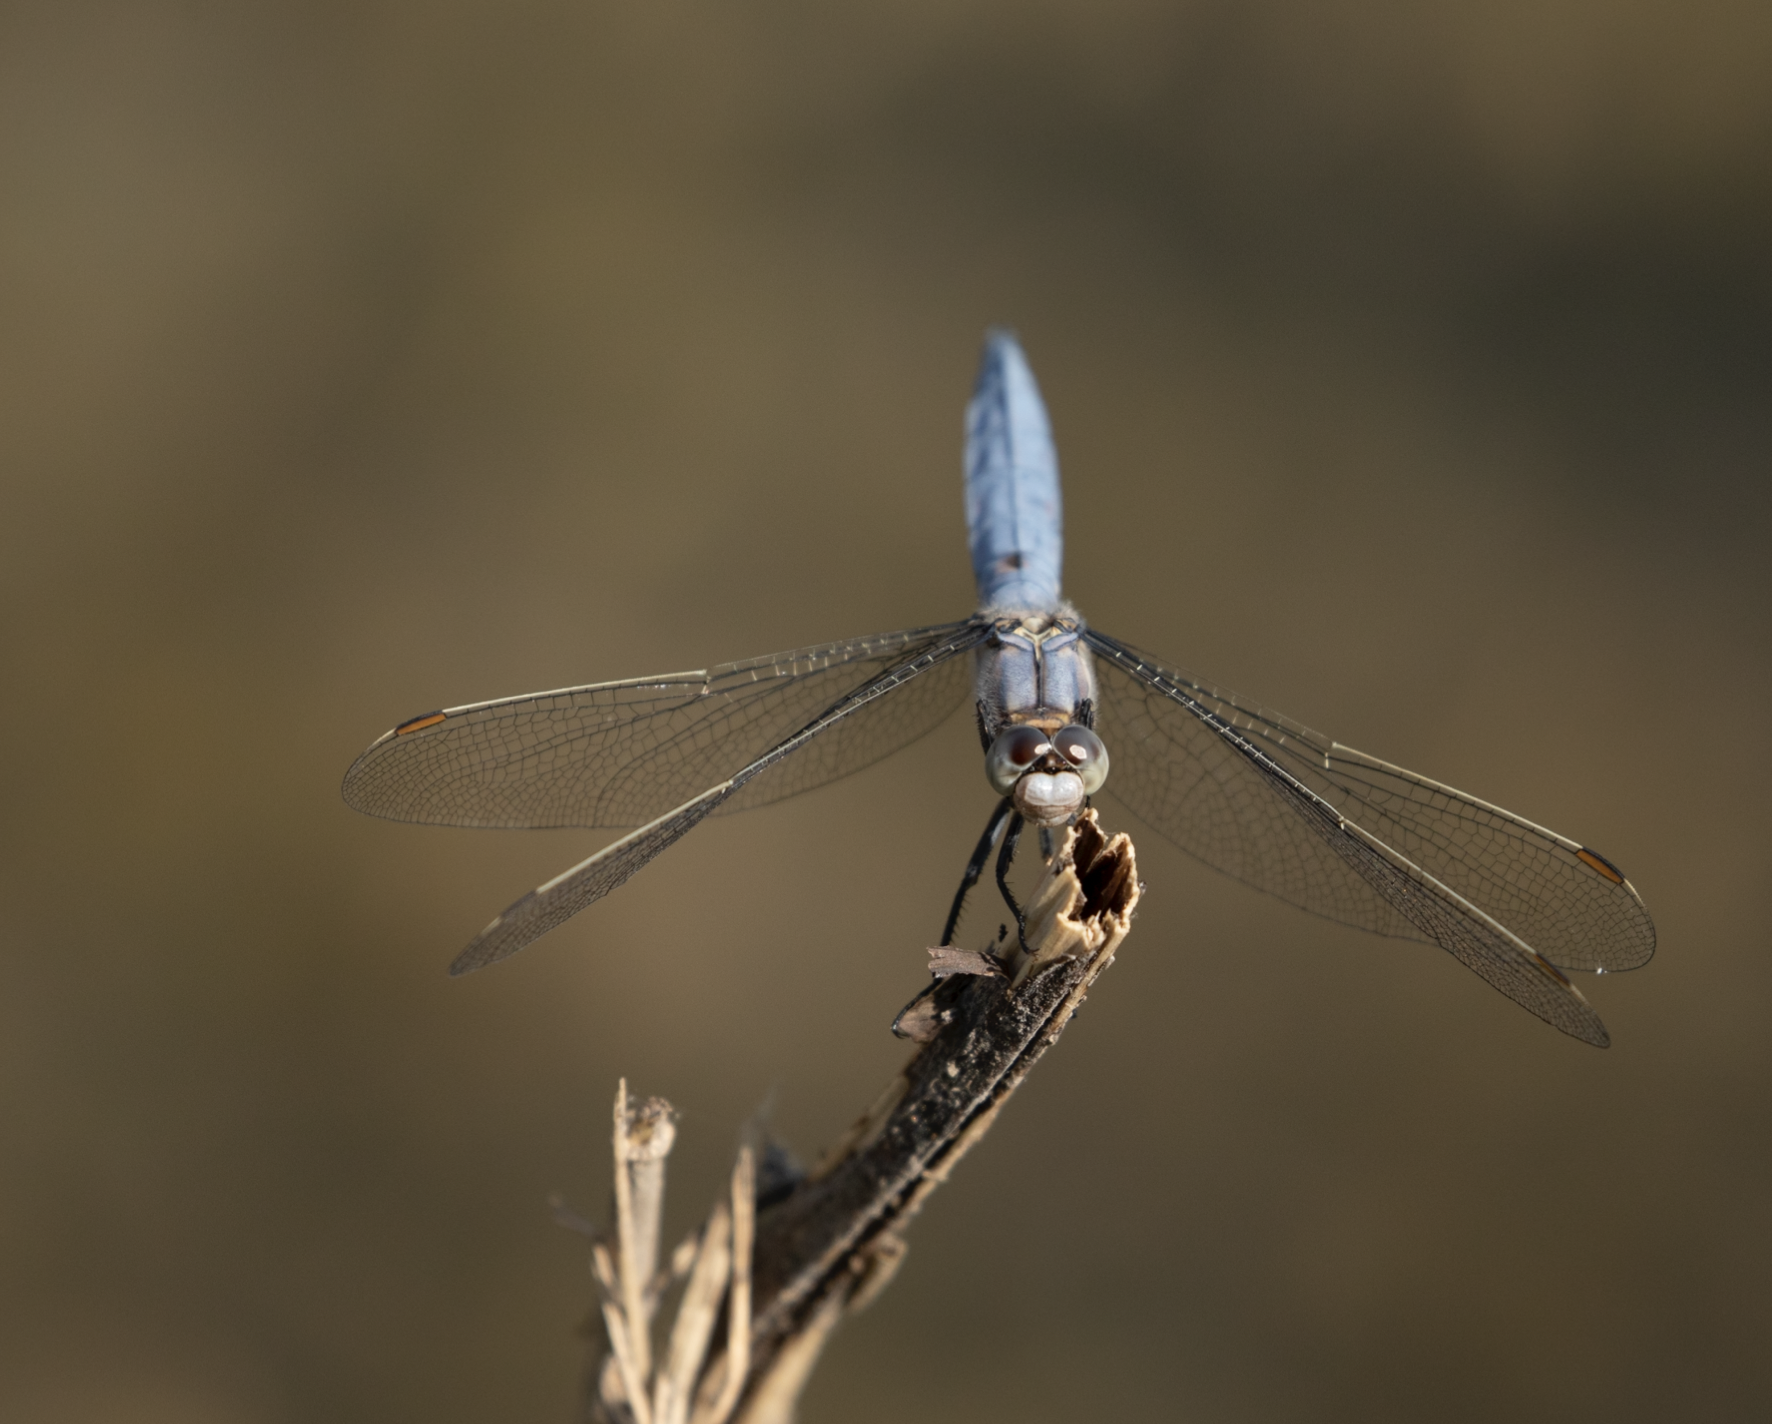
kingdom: Animalia
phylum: Arthropoda
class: Insecta
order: Odonata
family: Libellulidae
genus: Orthetrum
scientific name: Orthetrum brunneum
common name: Southern skimmer
